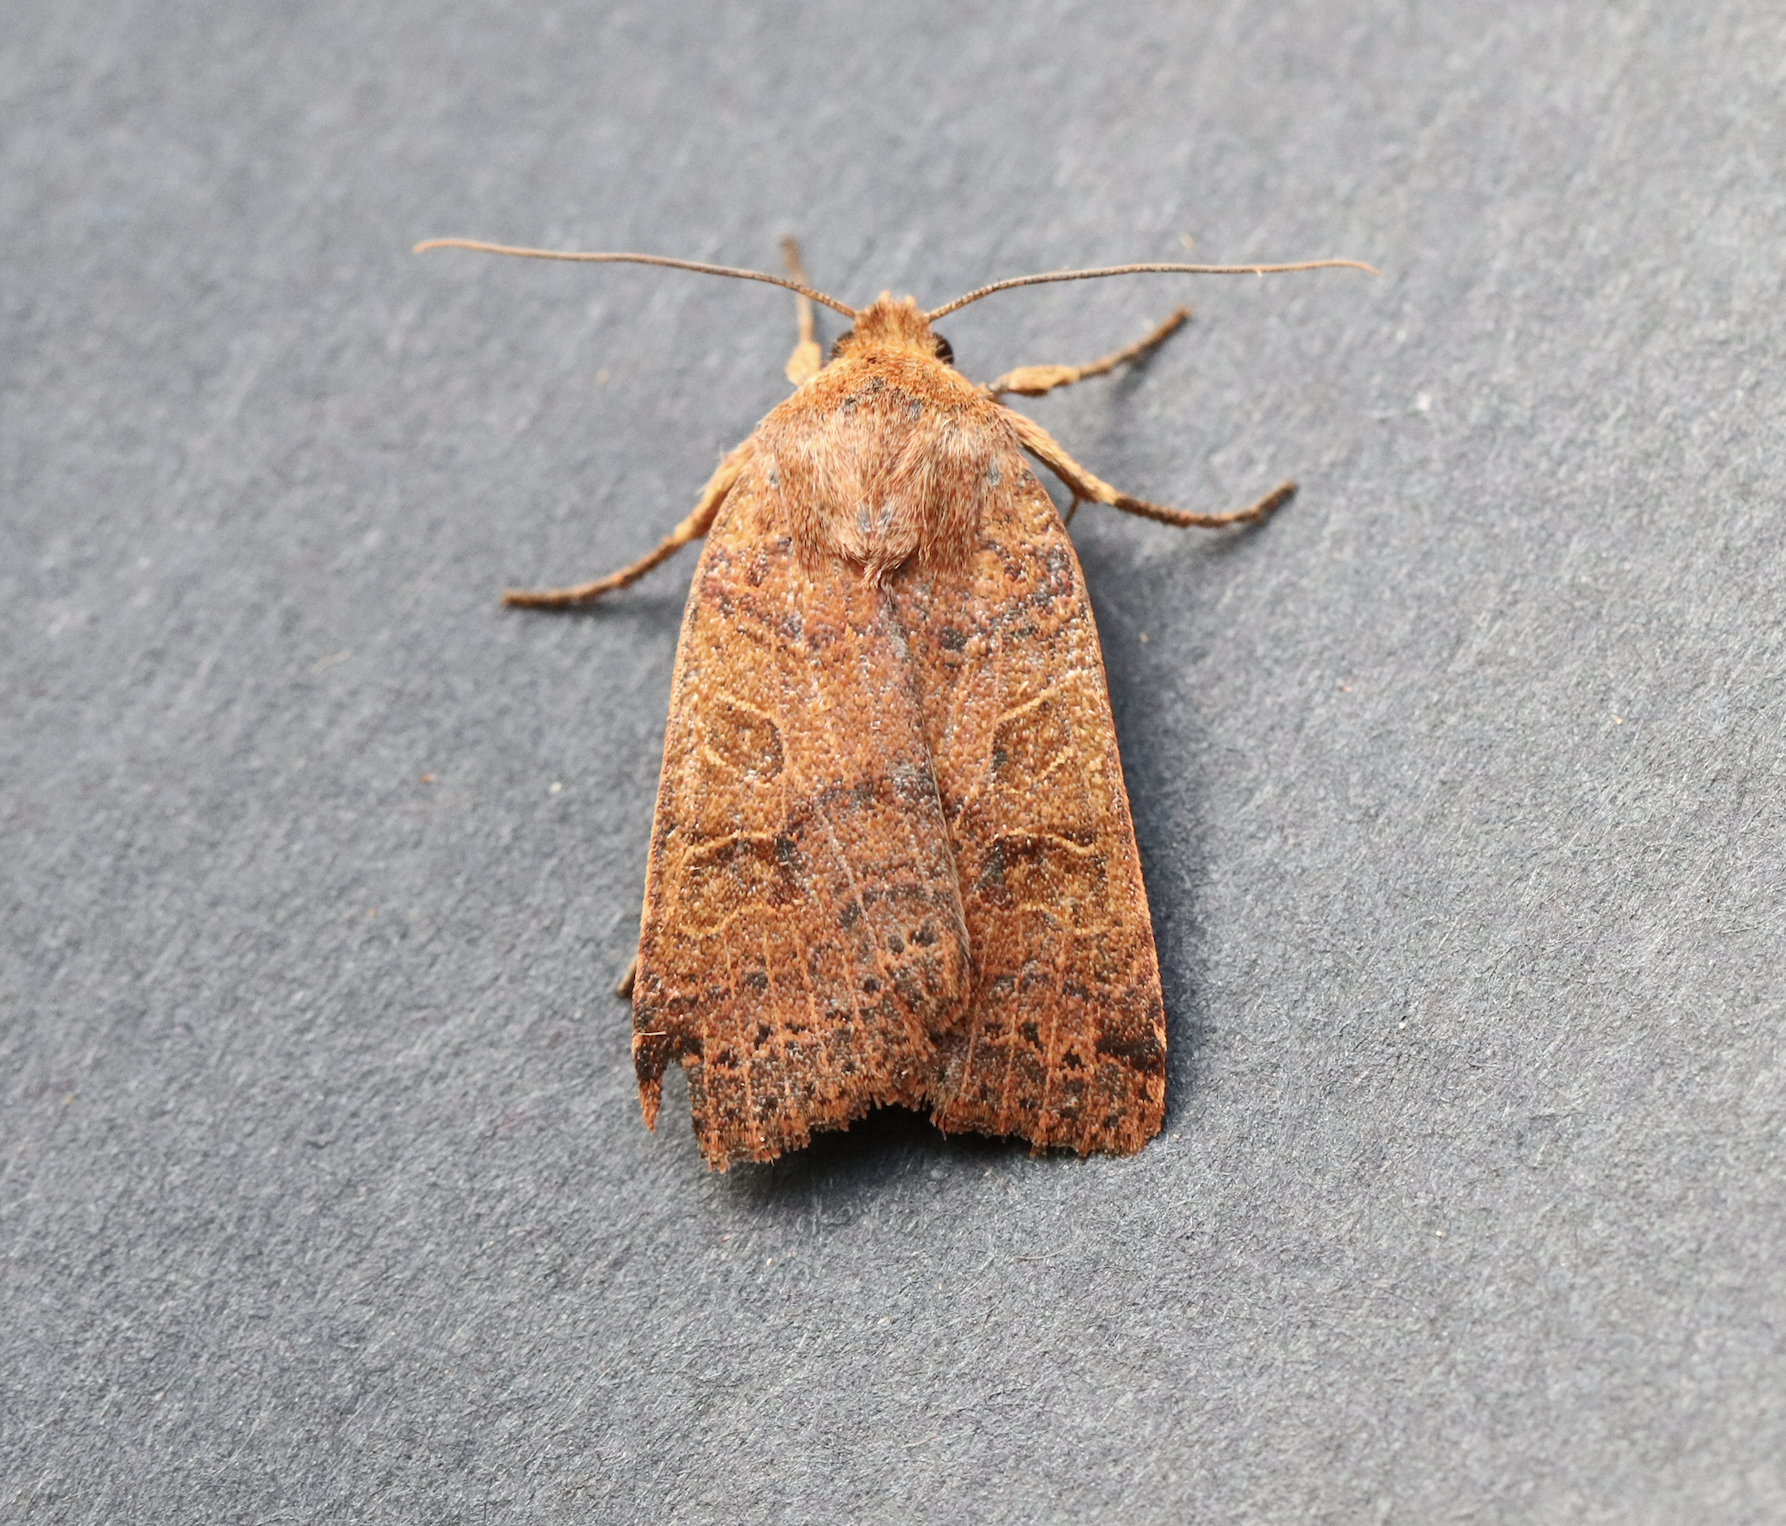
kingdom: Animalia
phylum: Arthropoda
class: Insecta
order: Lepidoptera
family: Noctuidae
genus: Agrochola
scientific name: Agrochola nitida
